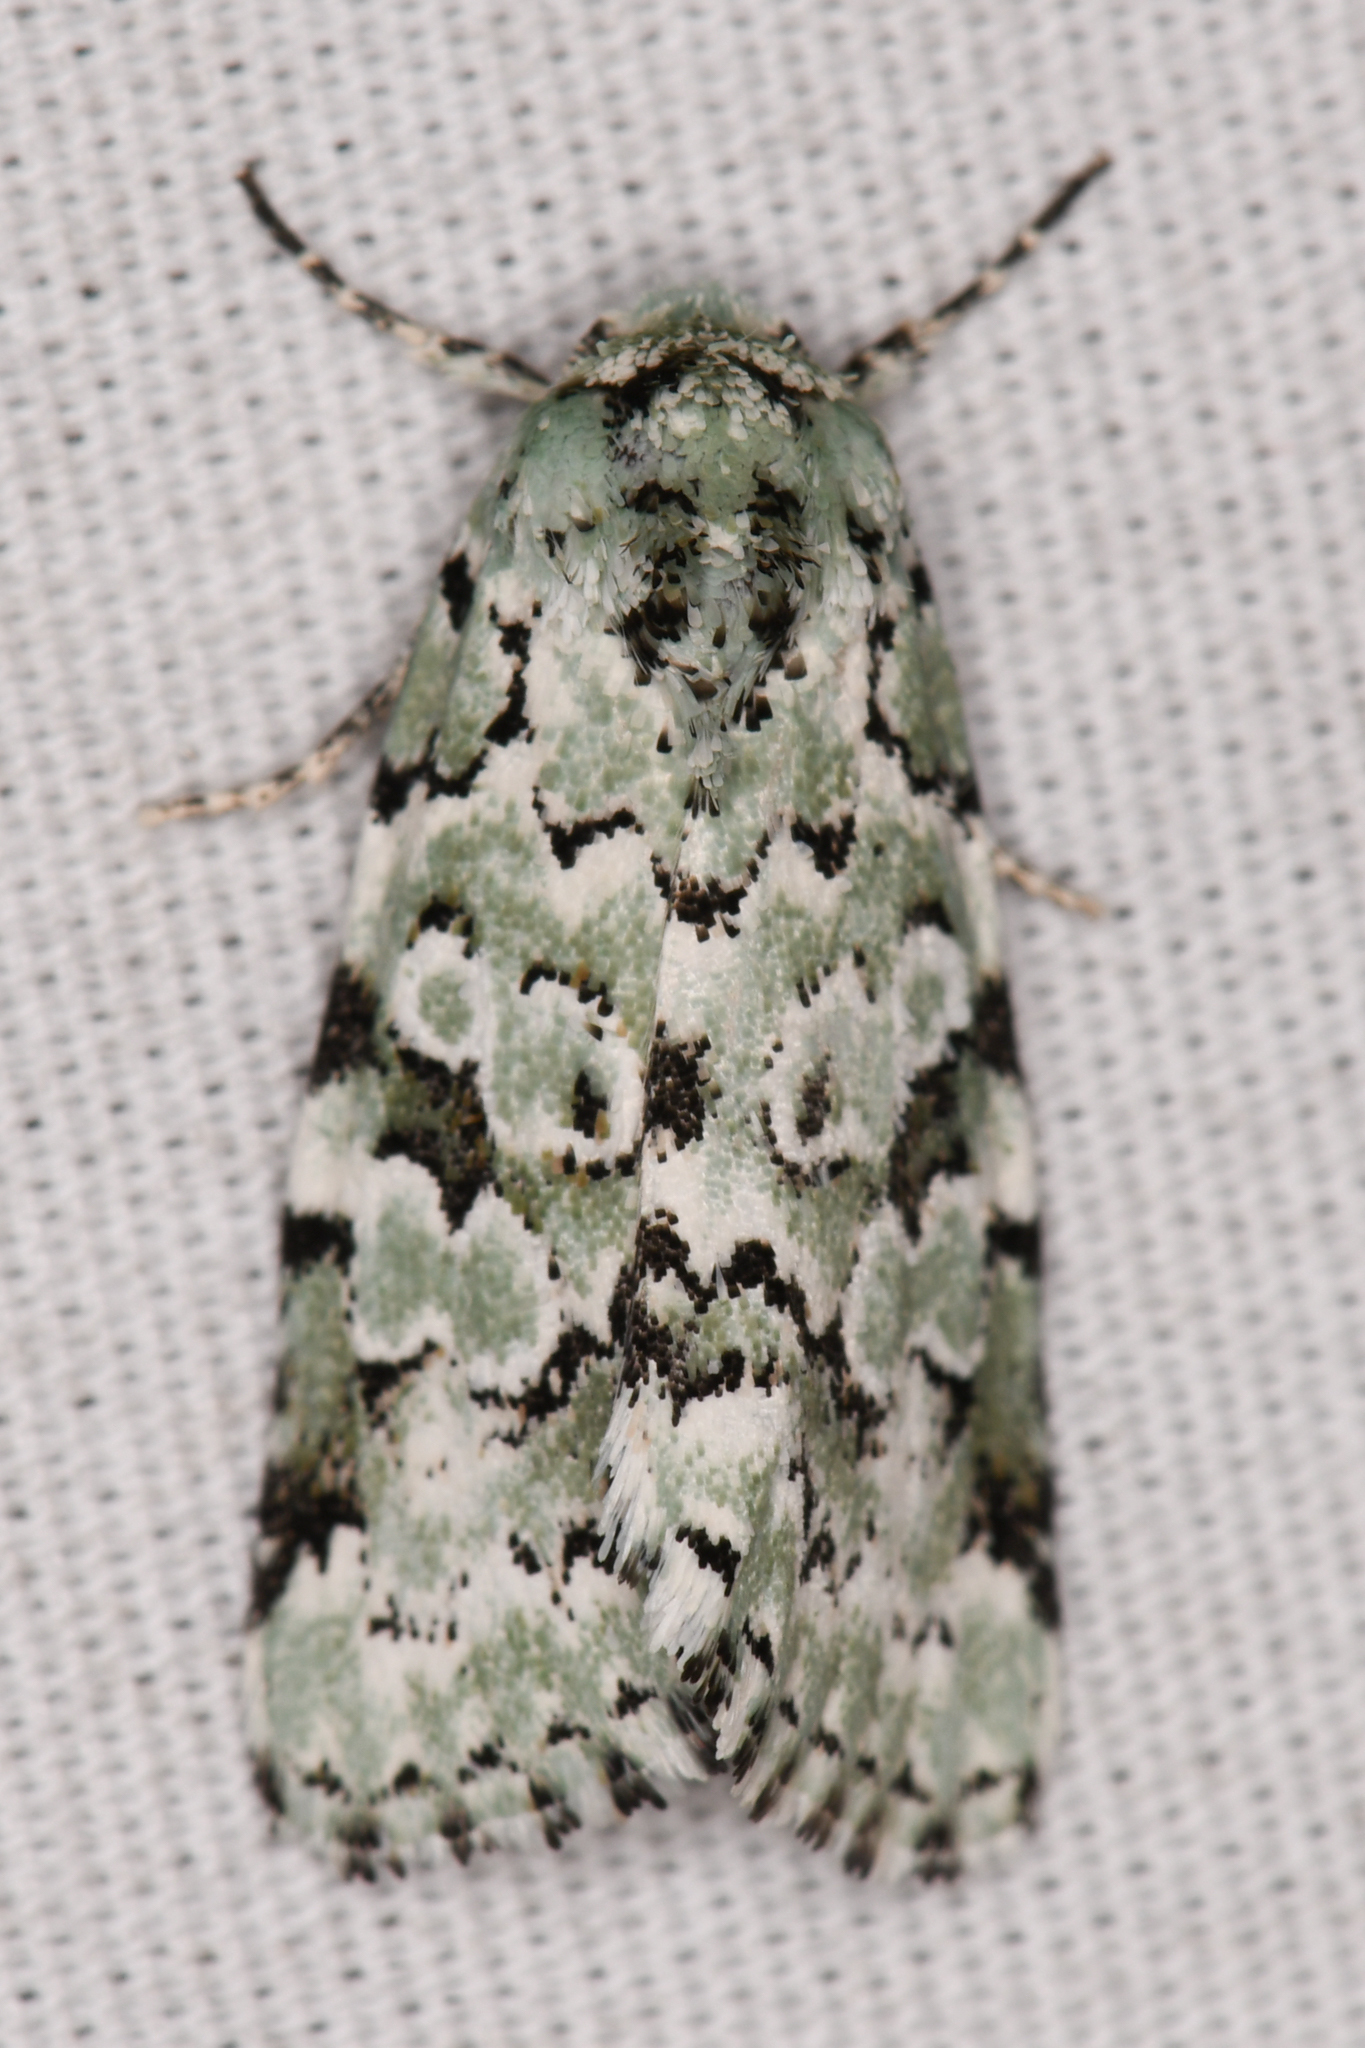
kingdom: Animalia
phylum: Arthropoda
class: Insecta
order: Lepidoptera
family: Noctuidae
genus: Bryolymnia
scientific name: Bryolymnia viridata
